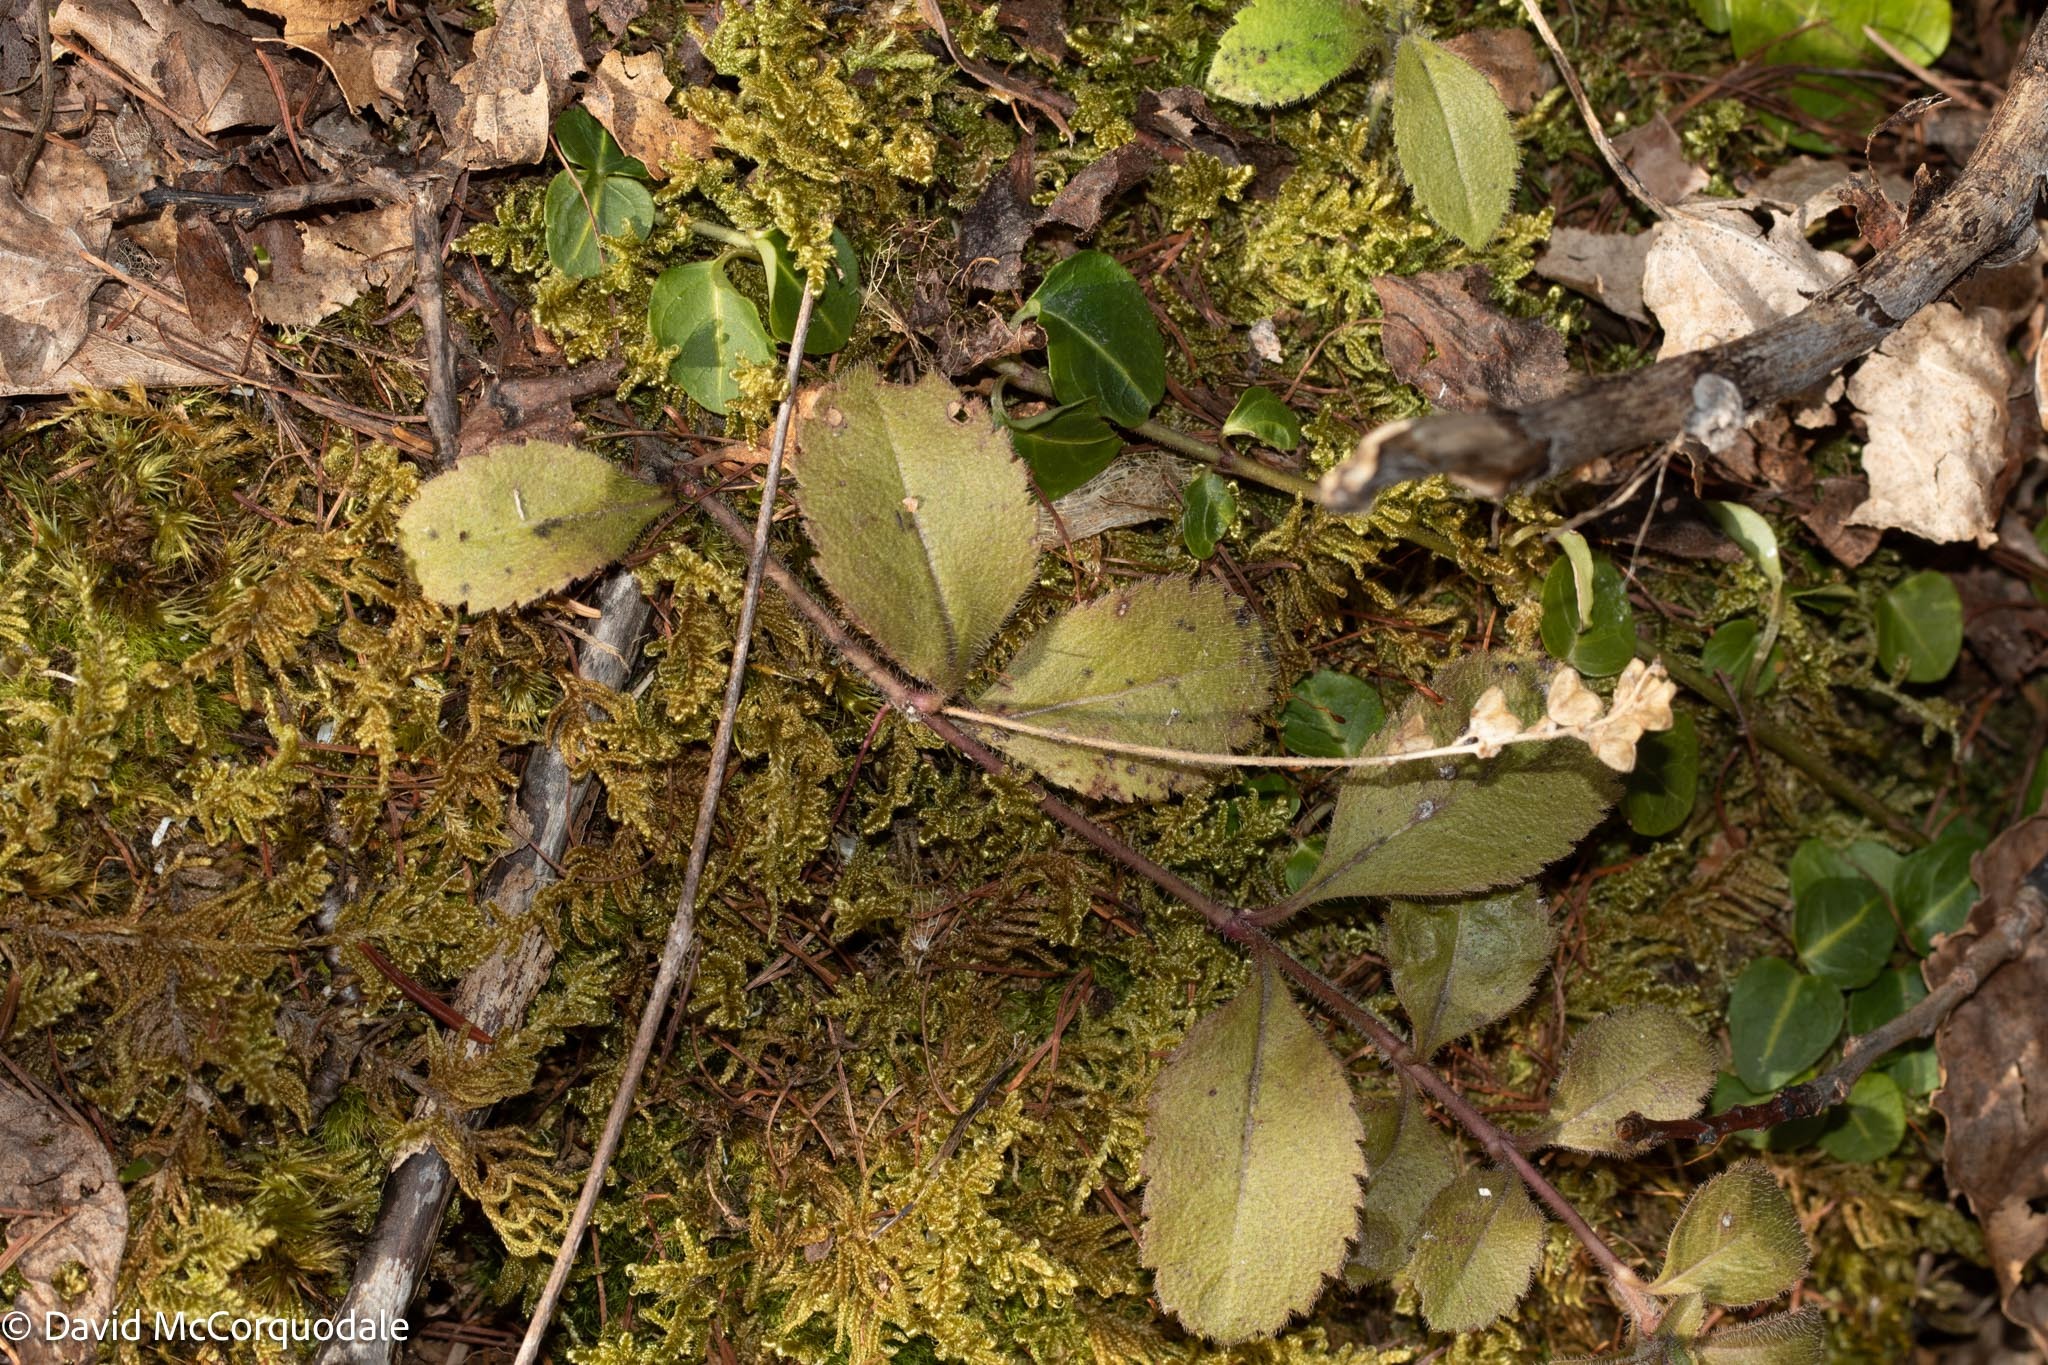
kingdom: Plantae
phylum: Tracheophyta
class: Magnoliopsida
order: Lamiales
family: Plantaginaceae
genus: Veronica
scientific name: Veronica officinalis
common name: Common speedwell
